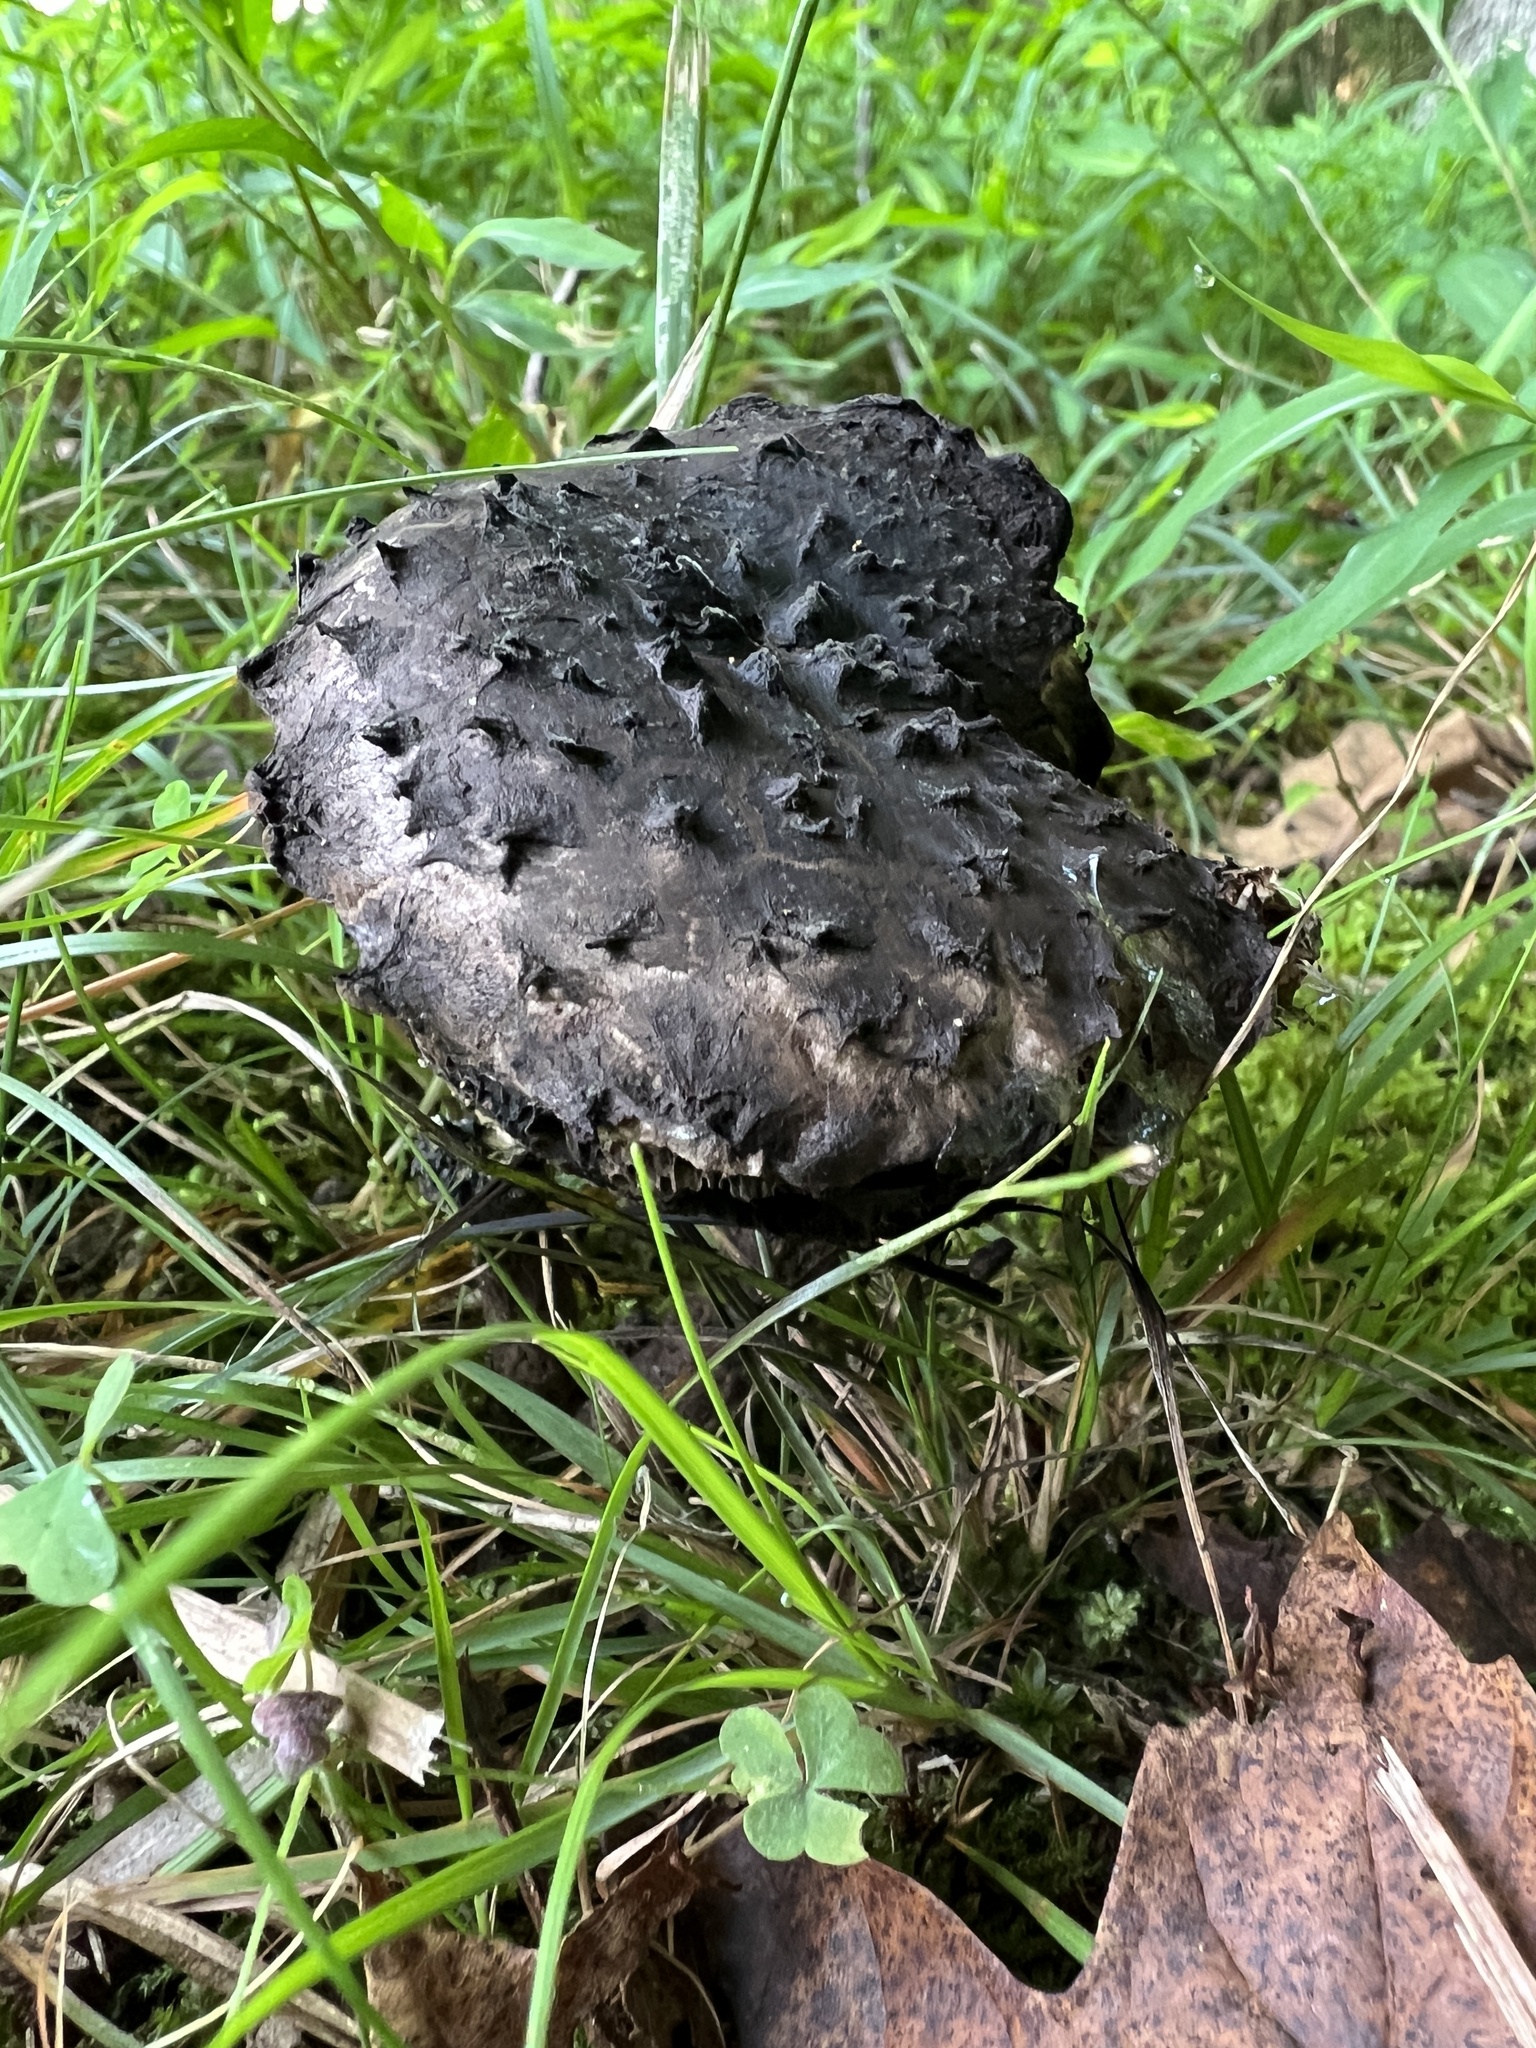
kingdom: Fungi
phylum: Basidiomycota
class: Agaricomycetes
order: Boletales
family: Boletaceae
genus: Strobilomyces
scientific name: Strobilomyces strobilaceus
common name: Old man of the woods
